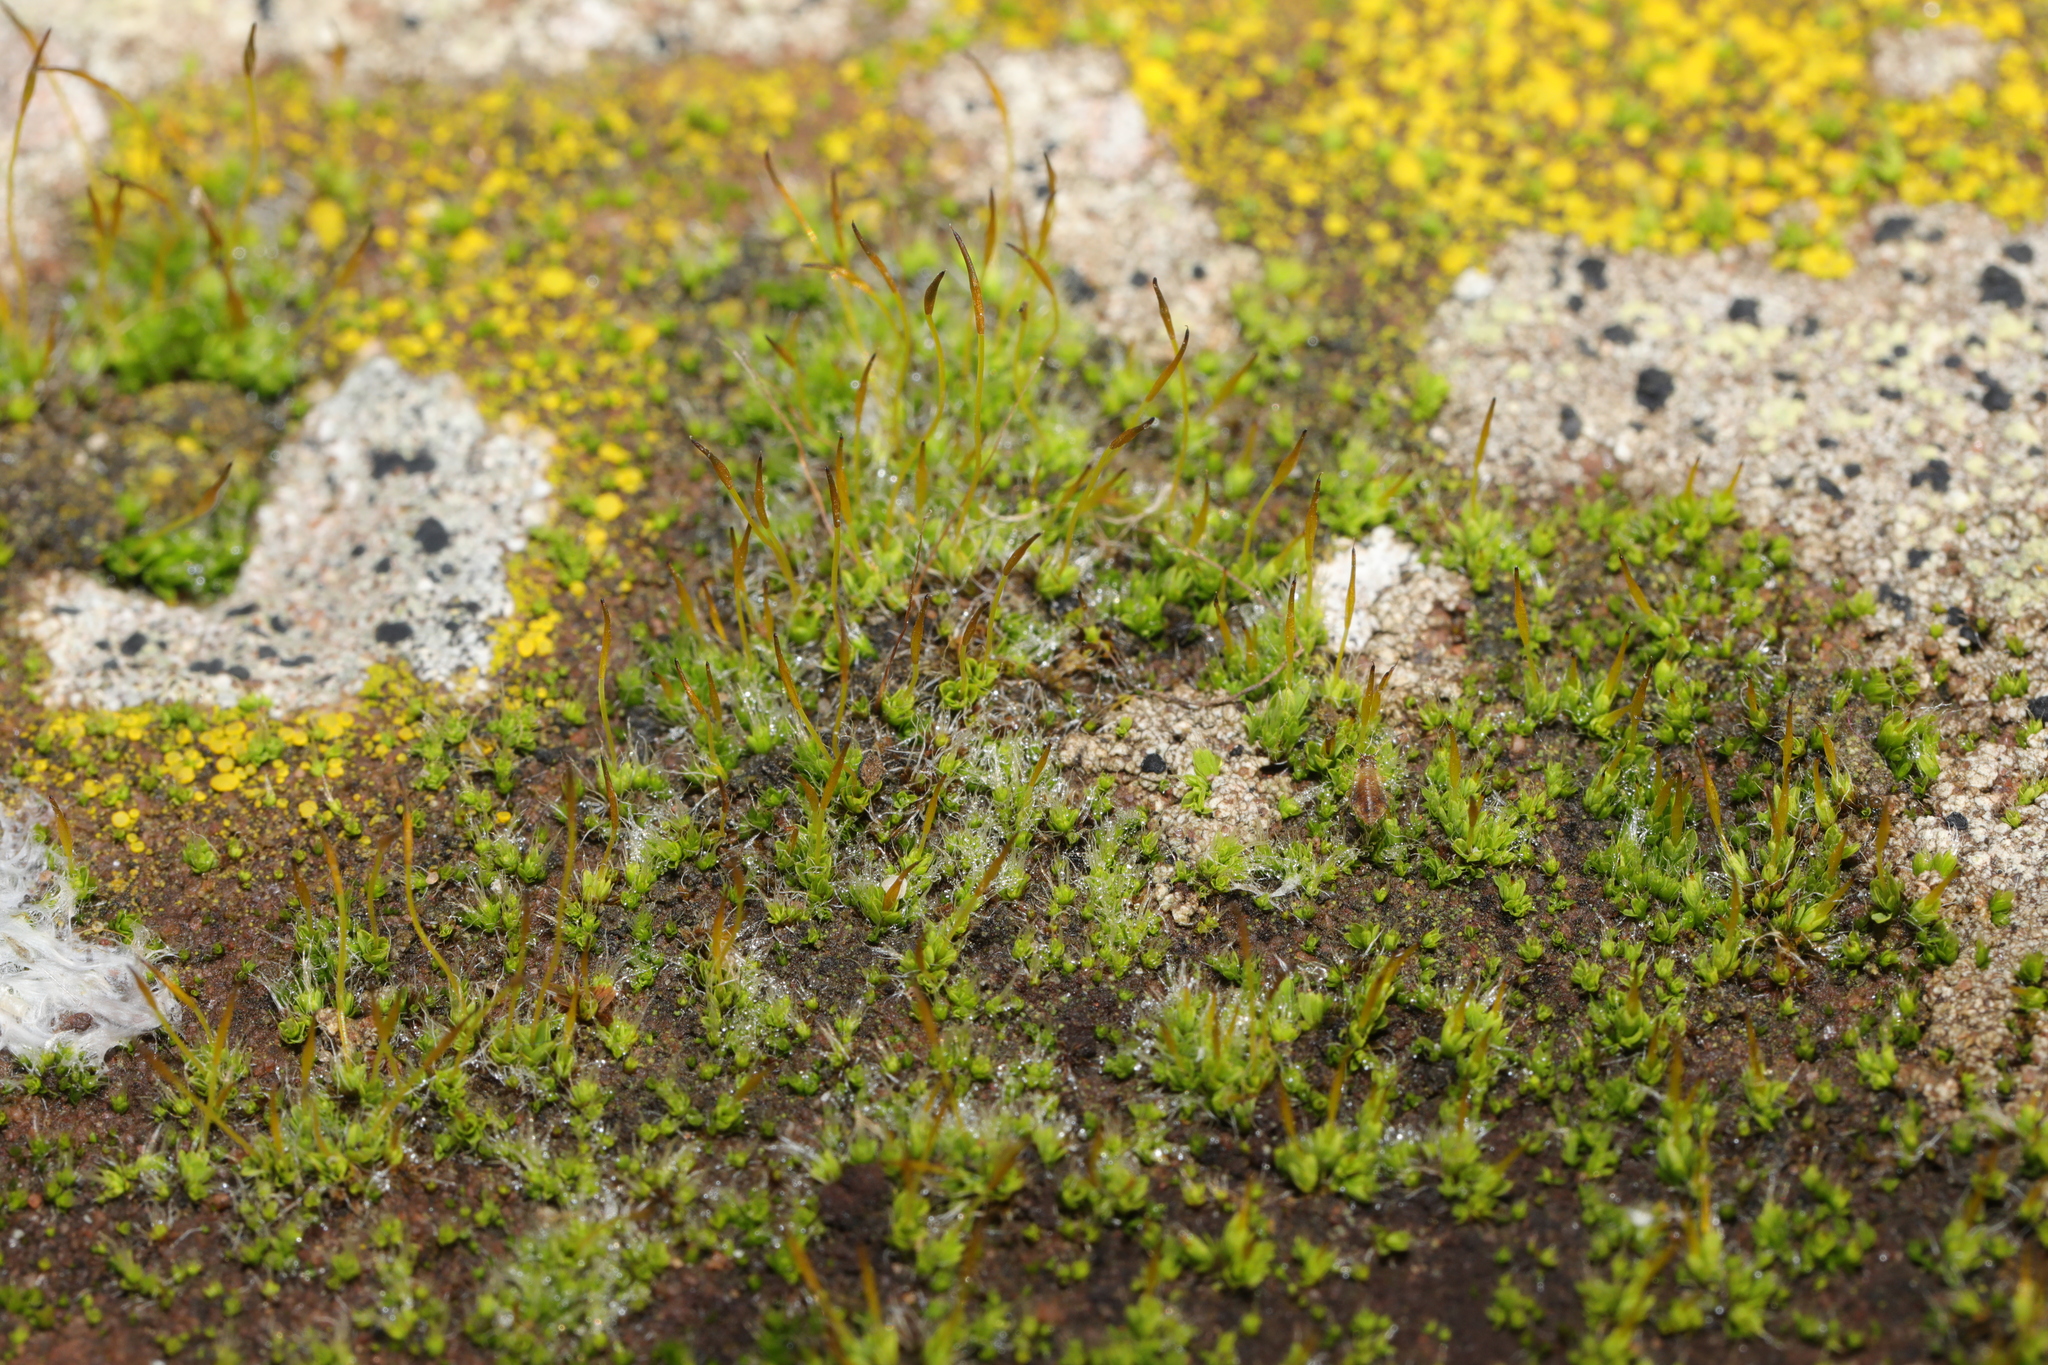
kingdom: Plantae
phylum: Bryophyta
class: Bryopsida
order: Pottiales
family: Pottiaceae
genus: Tortula
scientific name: Tortula muralis
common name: Wall screw-moss
